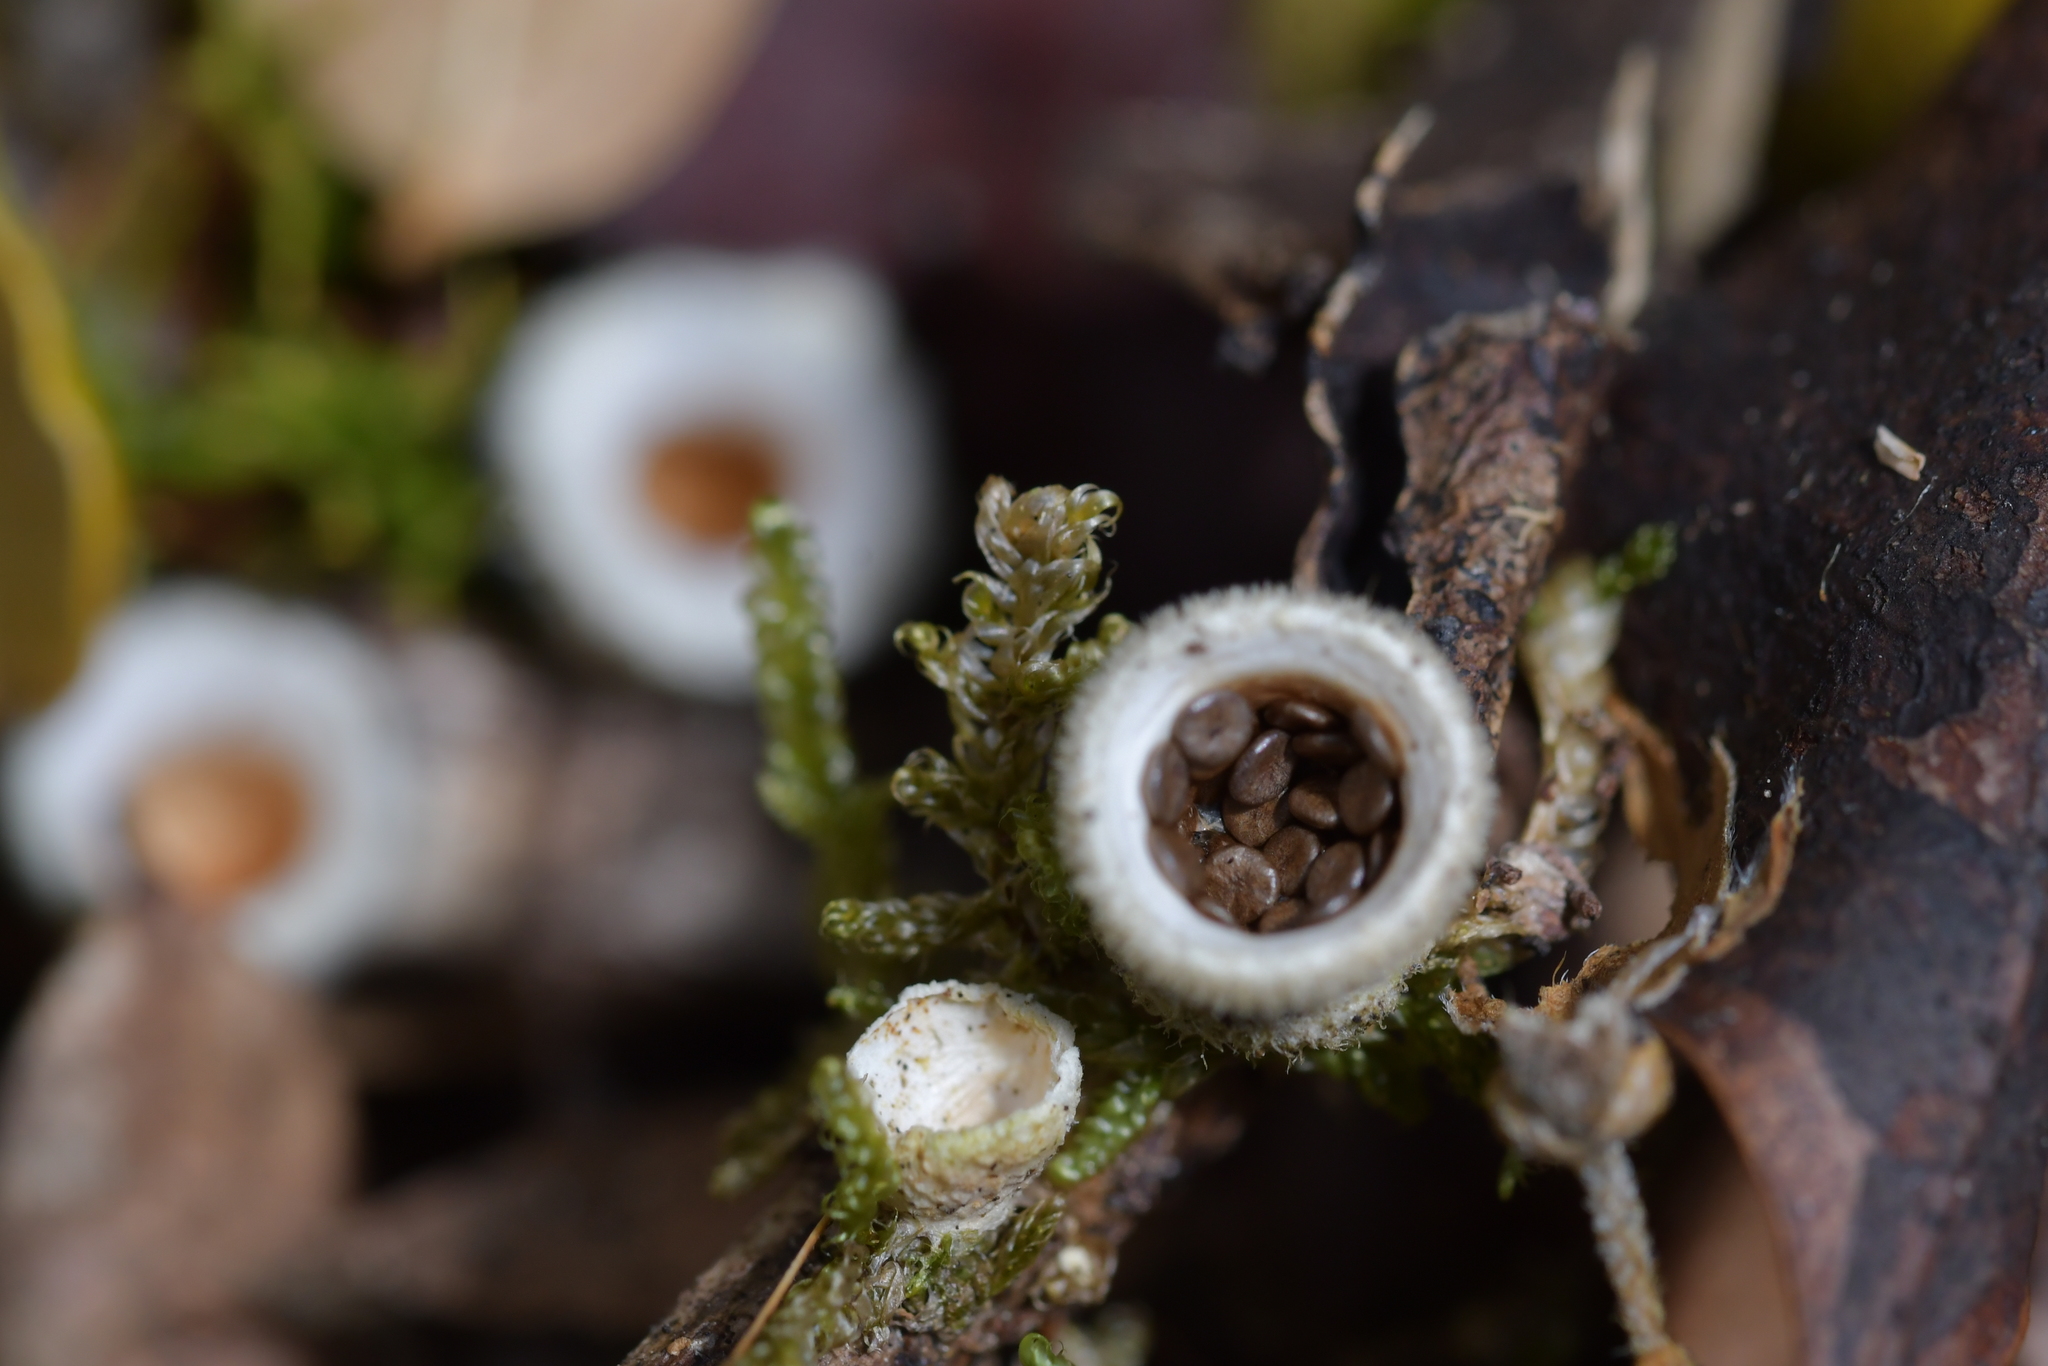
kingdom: Fungi
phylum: Basidiomycota
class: Agaricomycetes
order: Agaricales
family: Agaricaceae
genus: Nidula
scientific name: Nidula niveotomentosa
